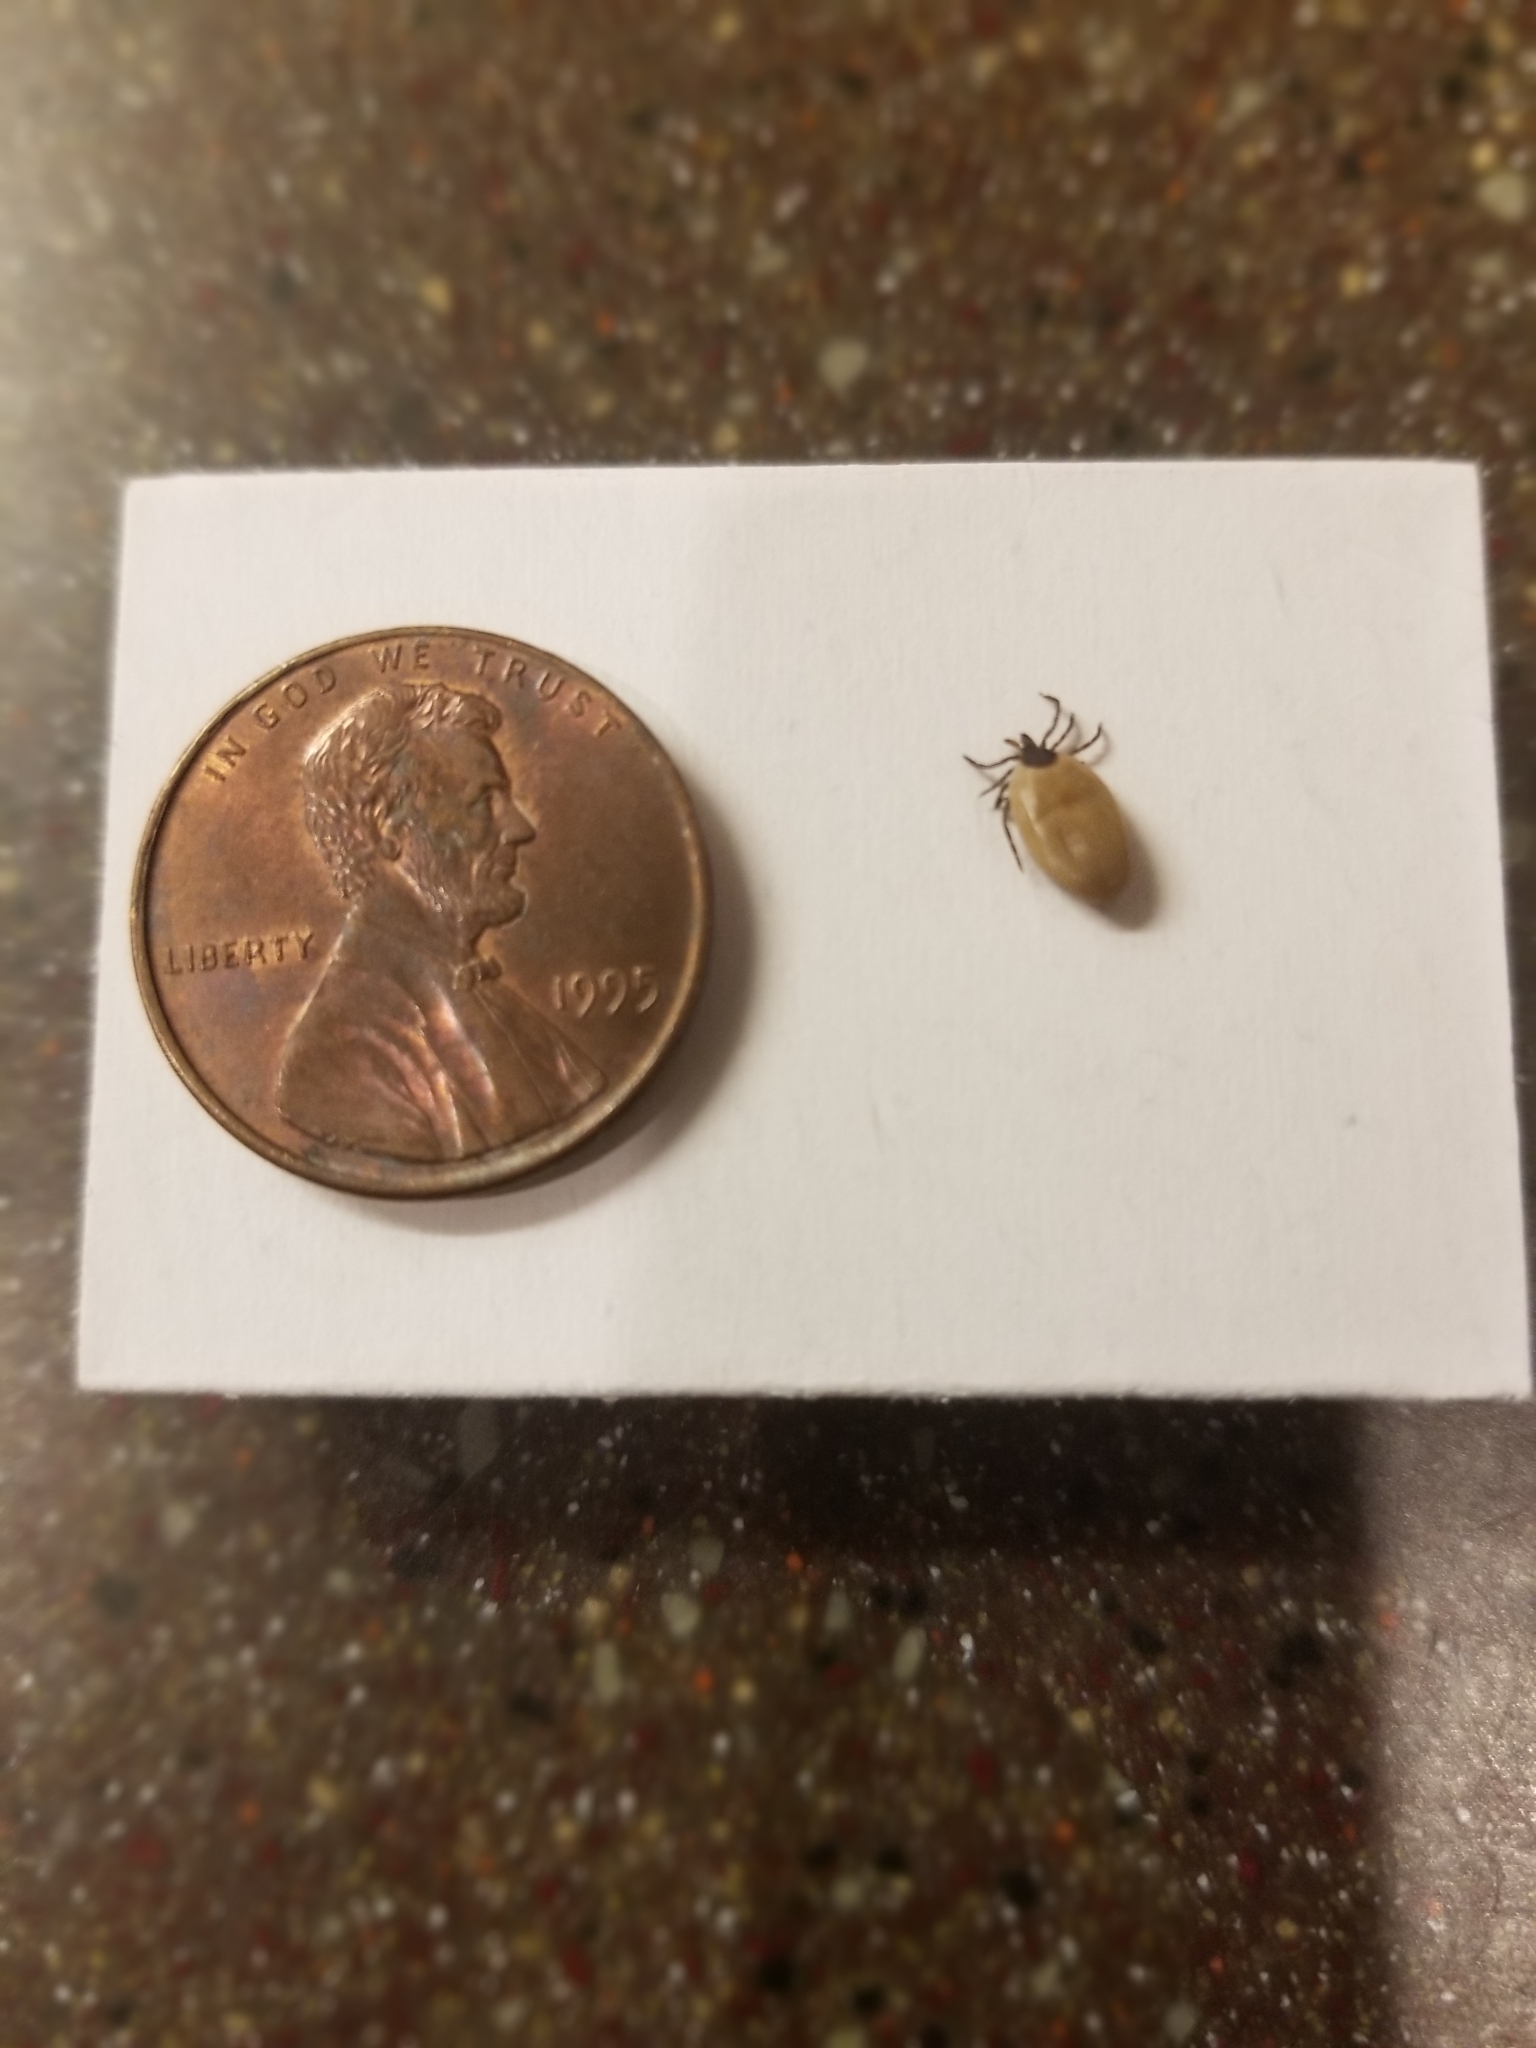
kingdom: Animalia
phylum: Arthropoda
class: Arachnida
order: Ixodida
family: Ixodidae
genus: Ixodes
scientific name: Ixodes scapularis
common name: Black legged tick
